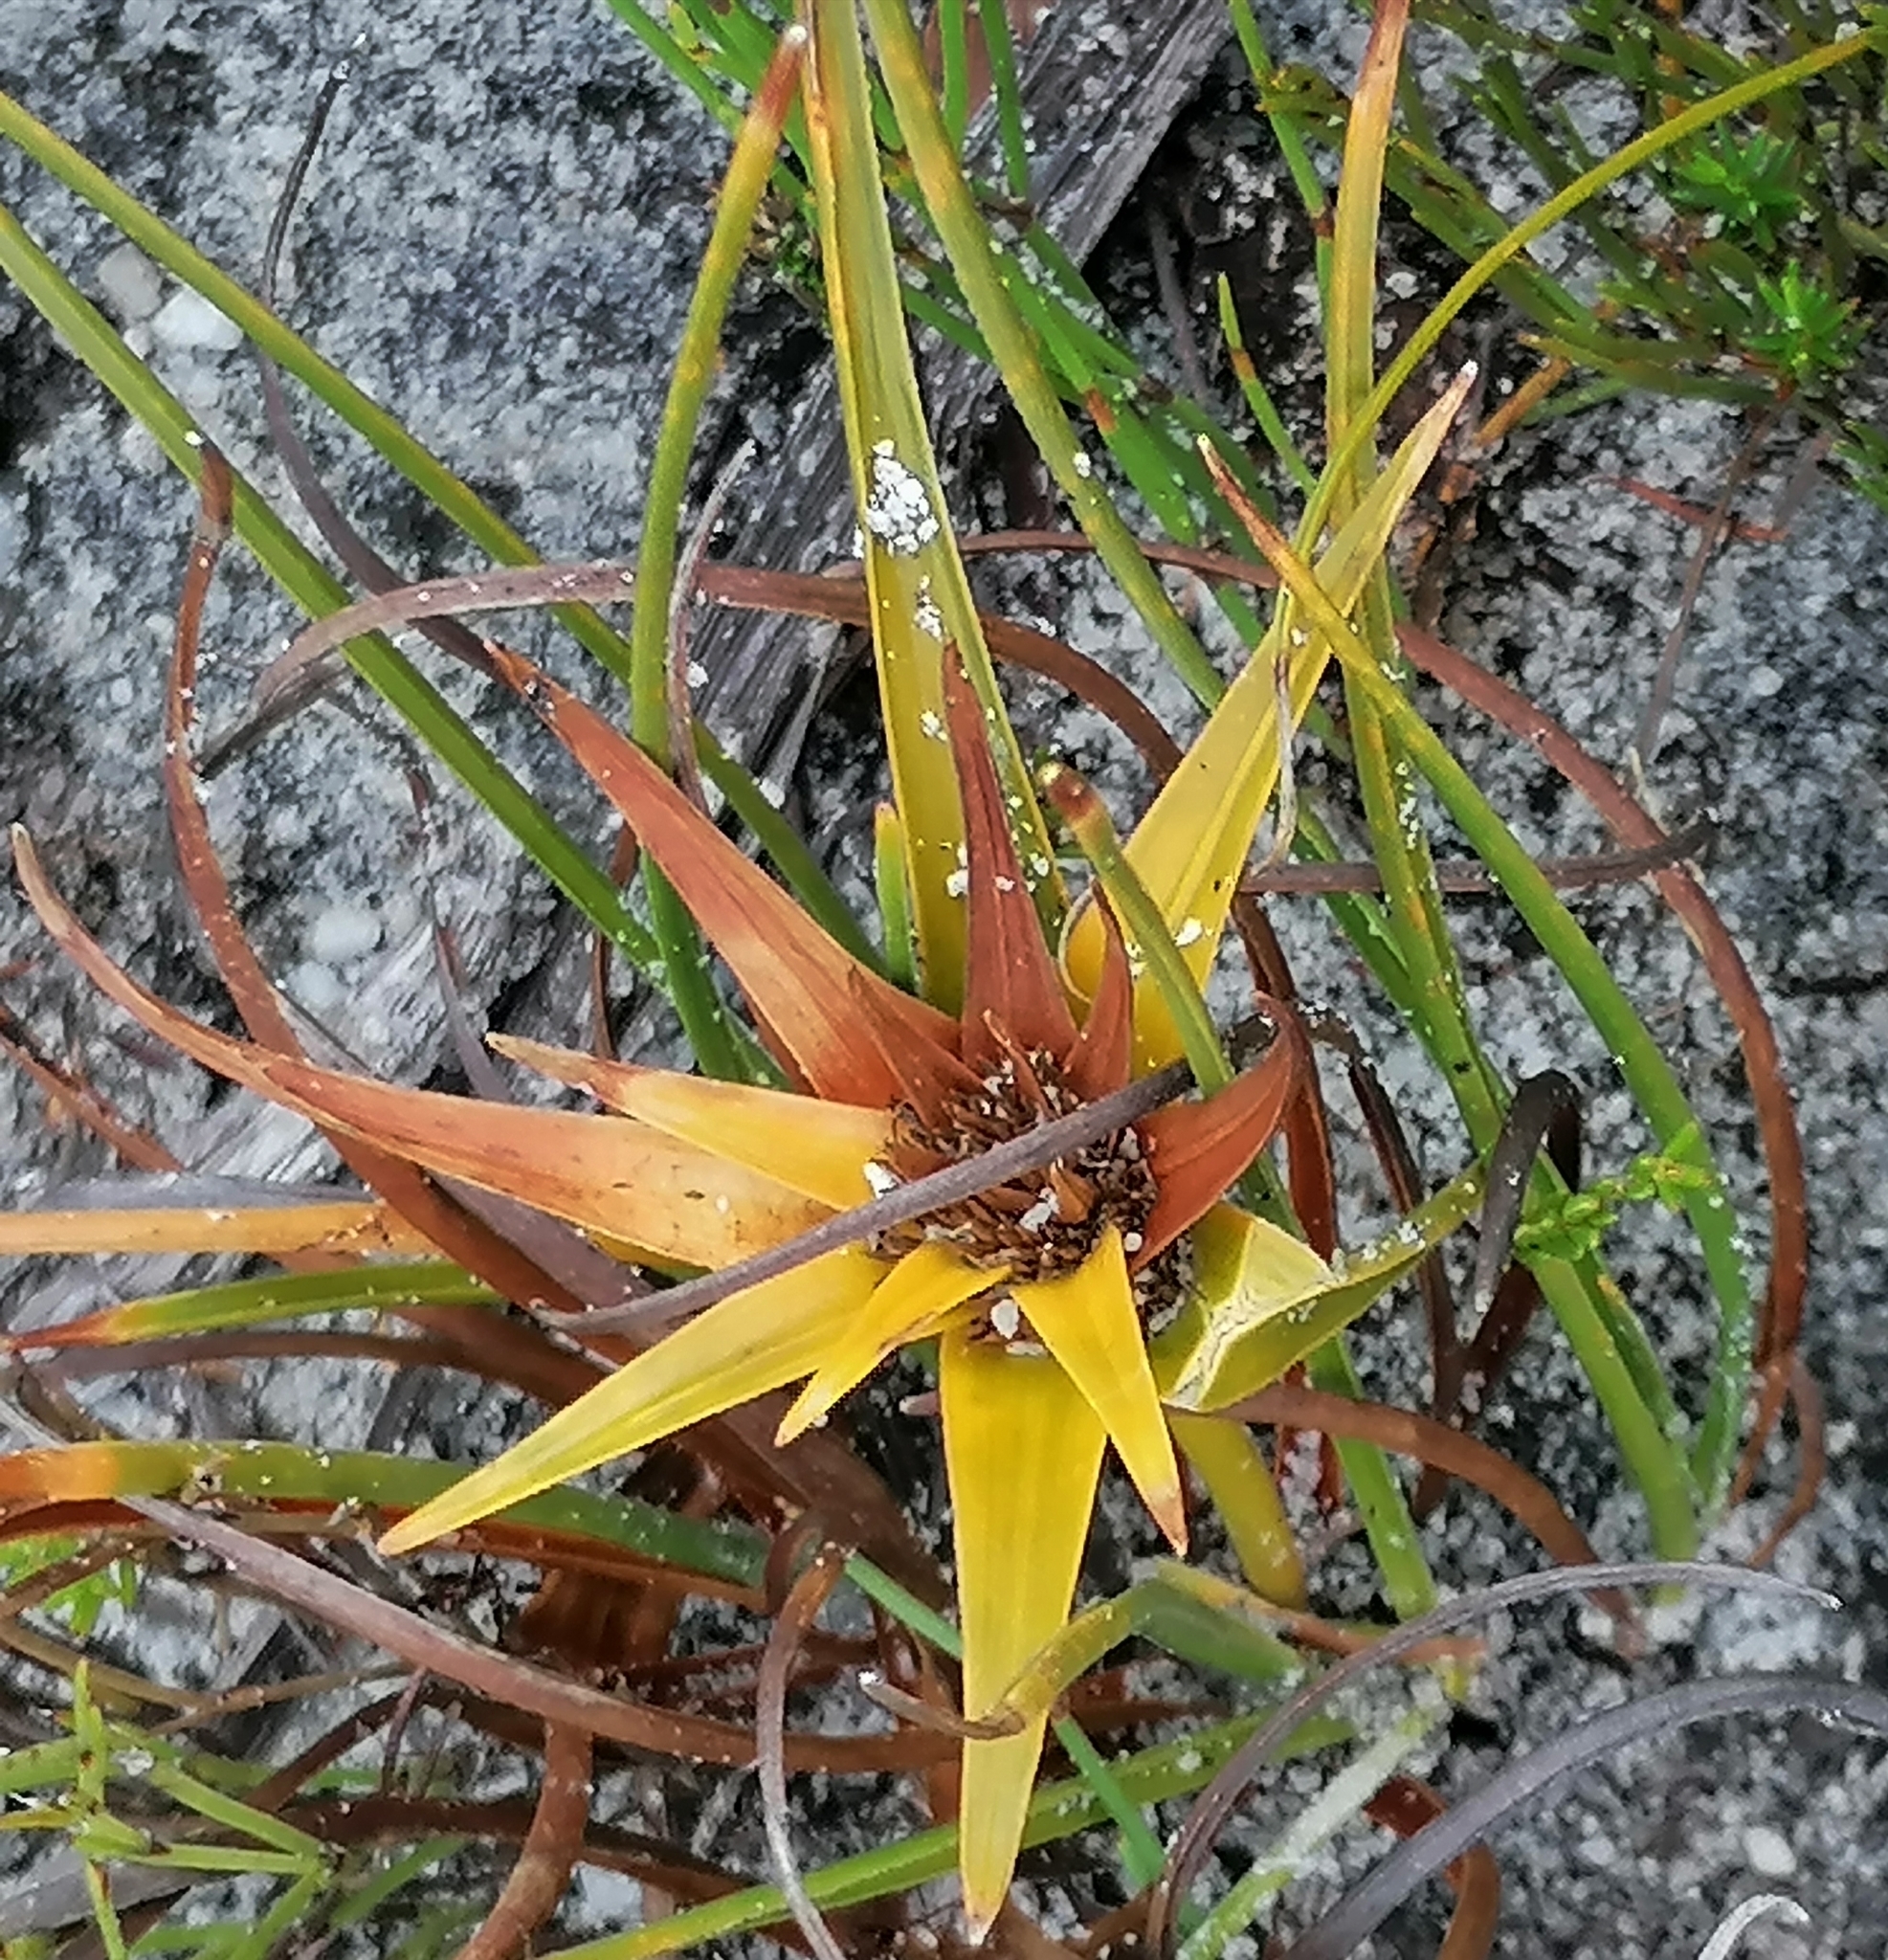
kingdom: Plantae
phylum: Tracheophyta
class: Liliopsida
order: Poales
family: Cyperaceae
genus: Ficinia
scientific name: Ficinia radiata
